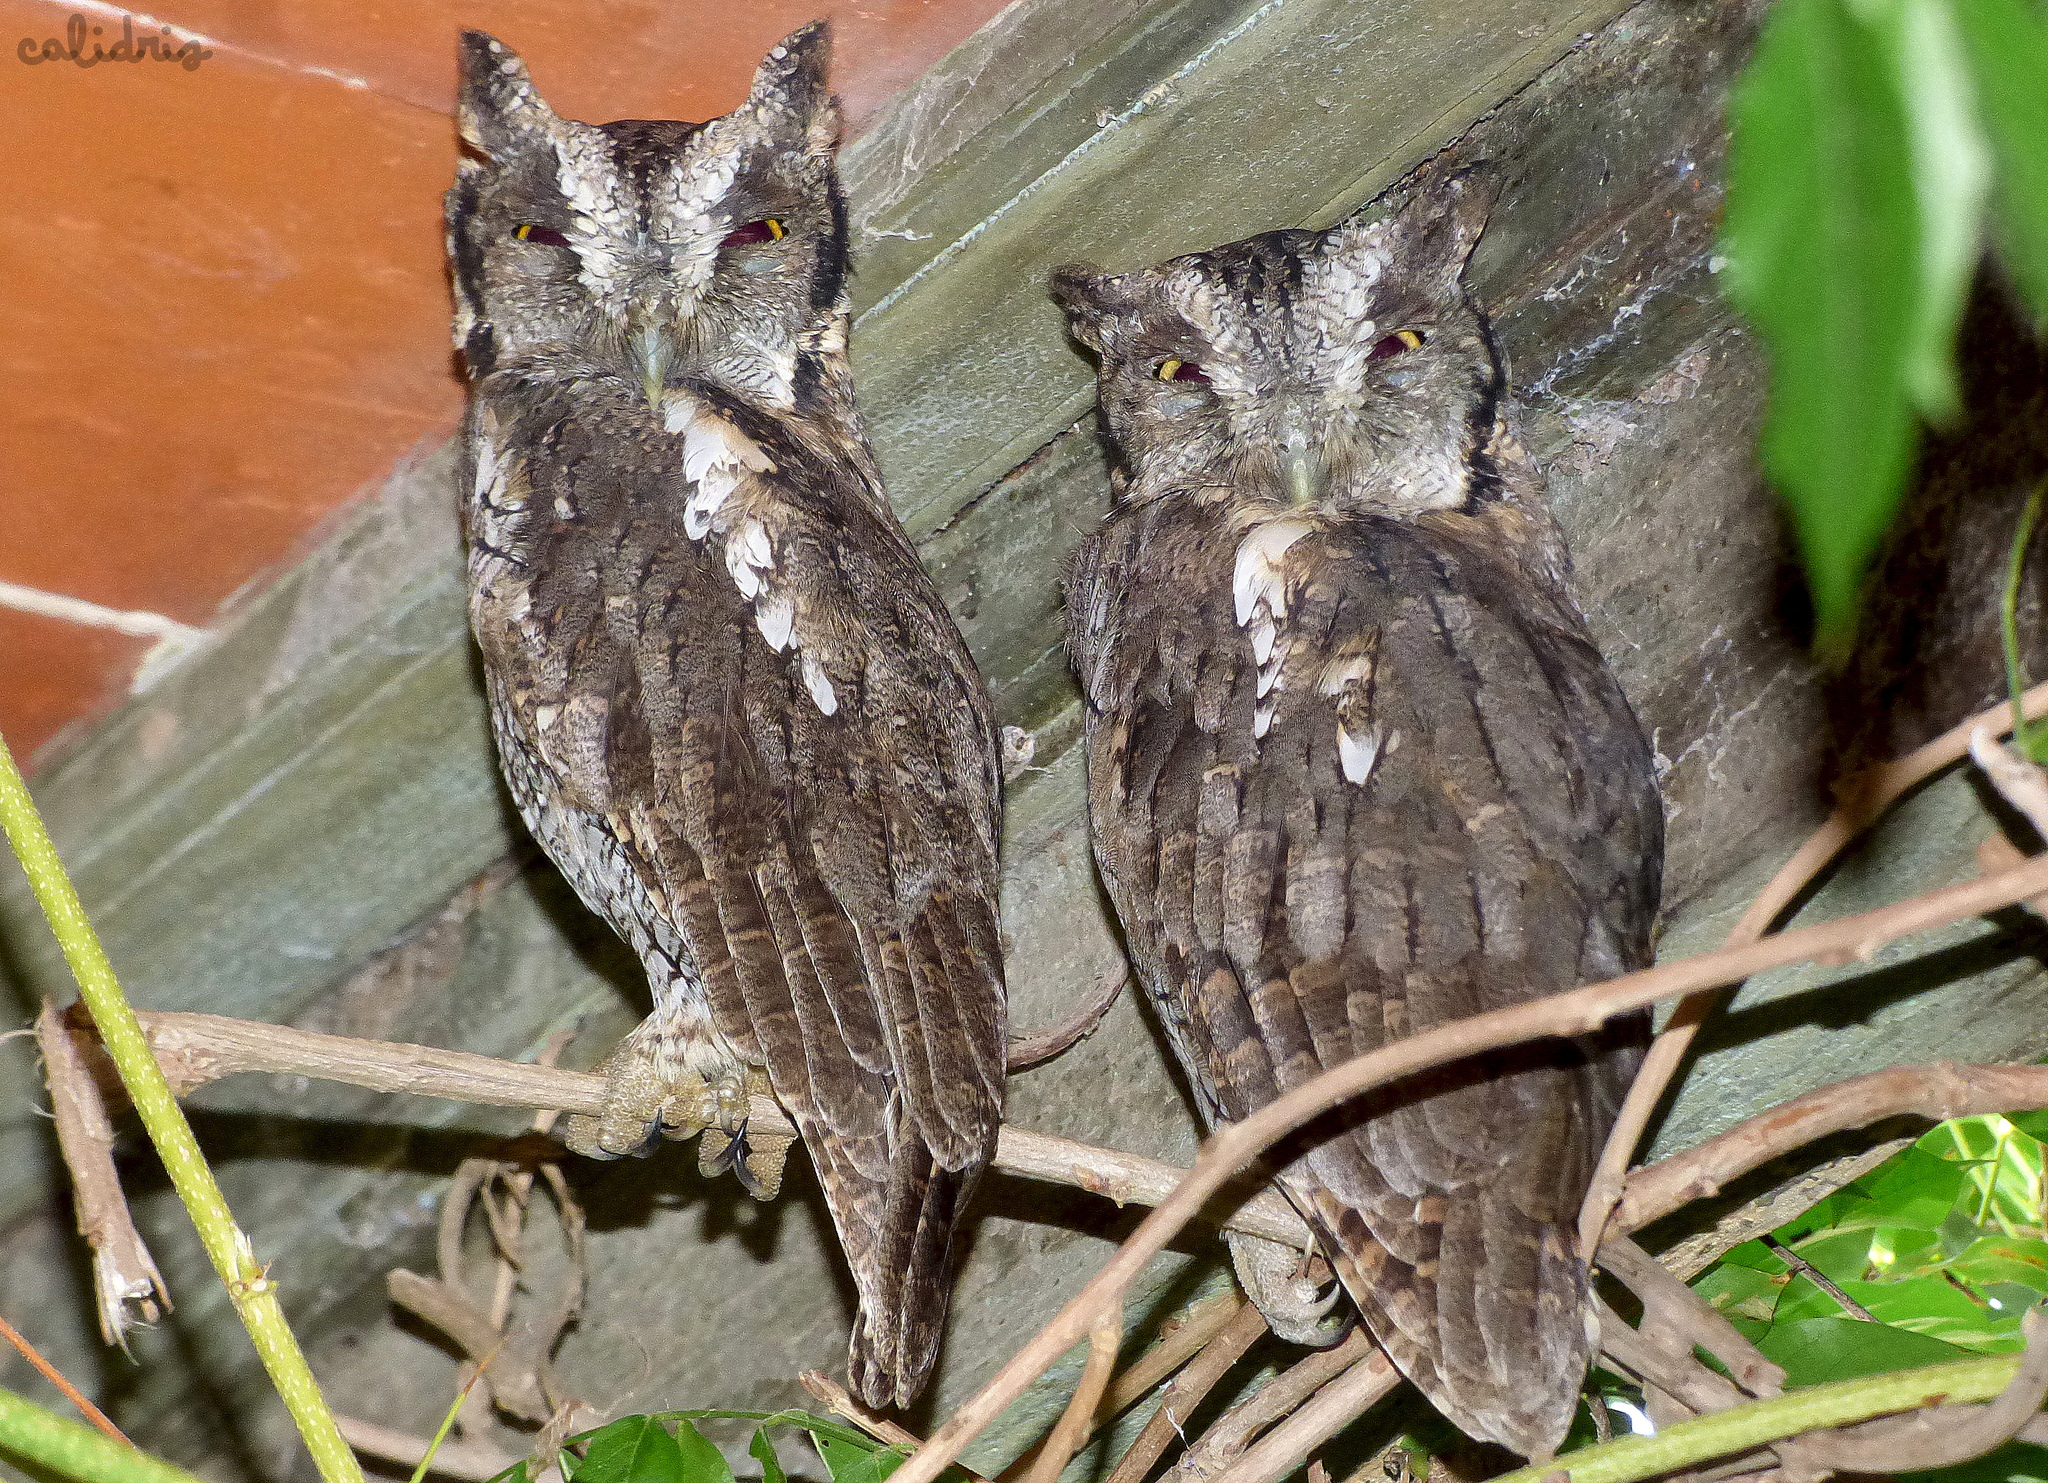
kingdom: Animalia
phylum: Chordata
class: Aves
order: Strigiformes
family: Strigidae
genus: Megascops
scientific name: Megascops choliba
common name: Tropical screech-owl
